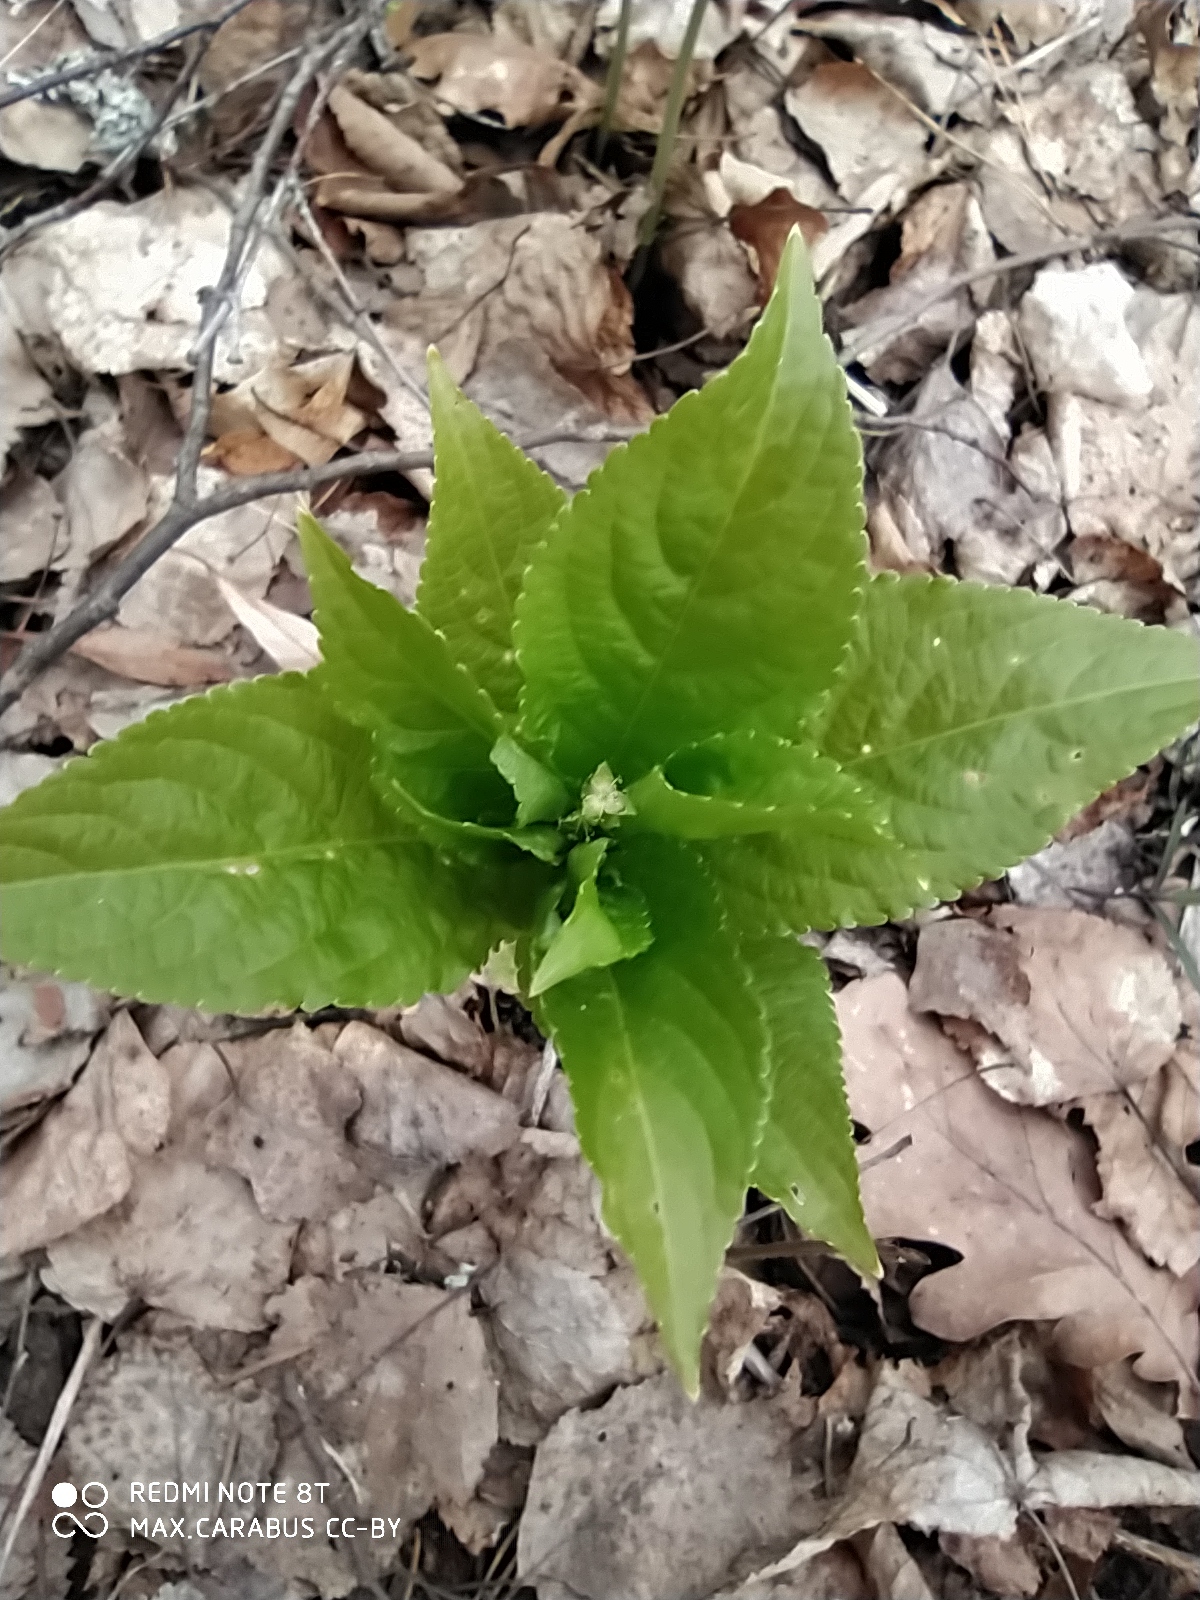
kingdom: Plantae
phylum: Tracheophyta
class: Magnoliopsida
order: Malpighiales
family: Euphorbiaceae
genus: Mercurialis
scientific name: Mercurialis perennis
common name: Dog mercury
